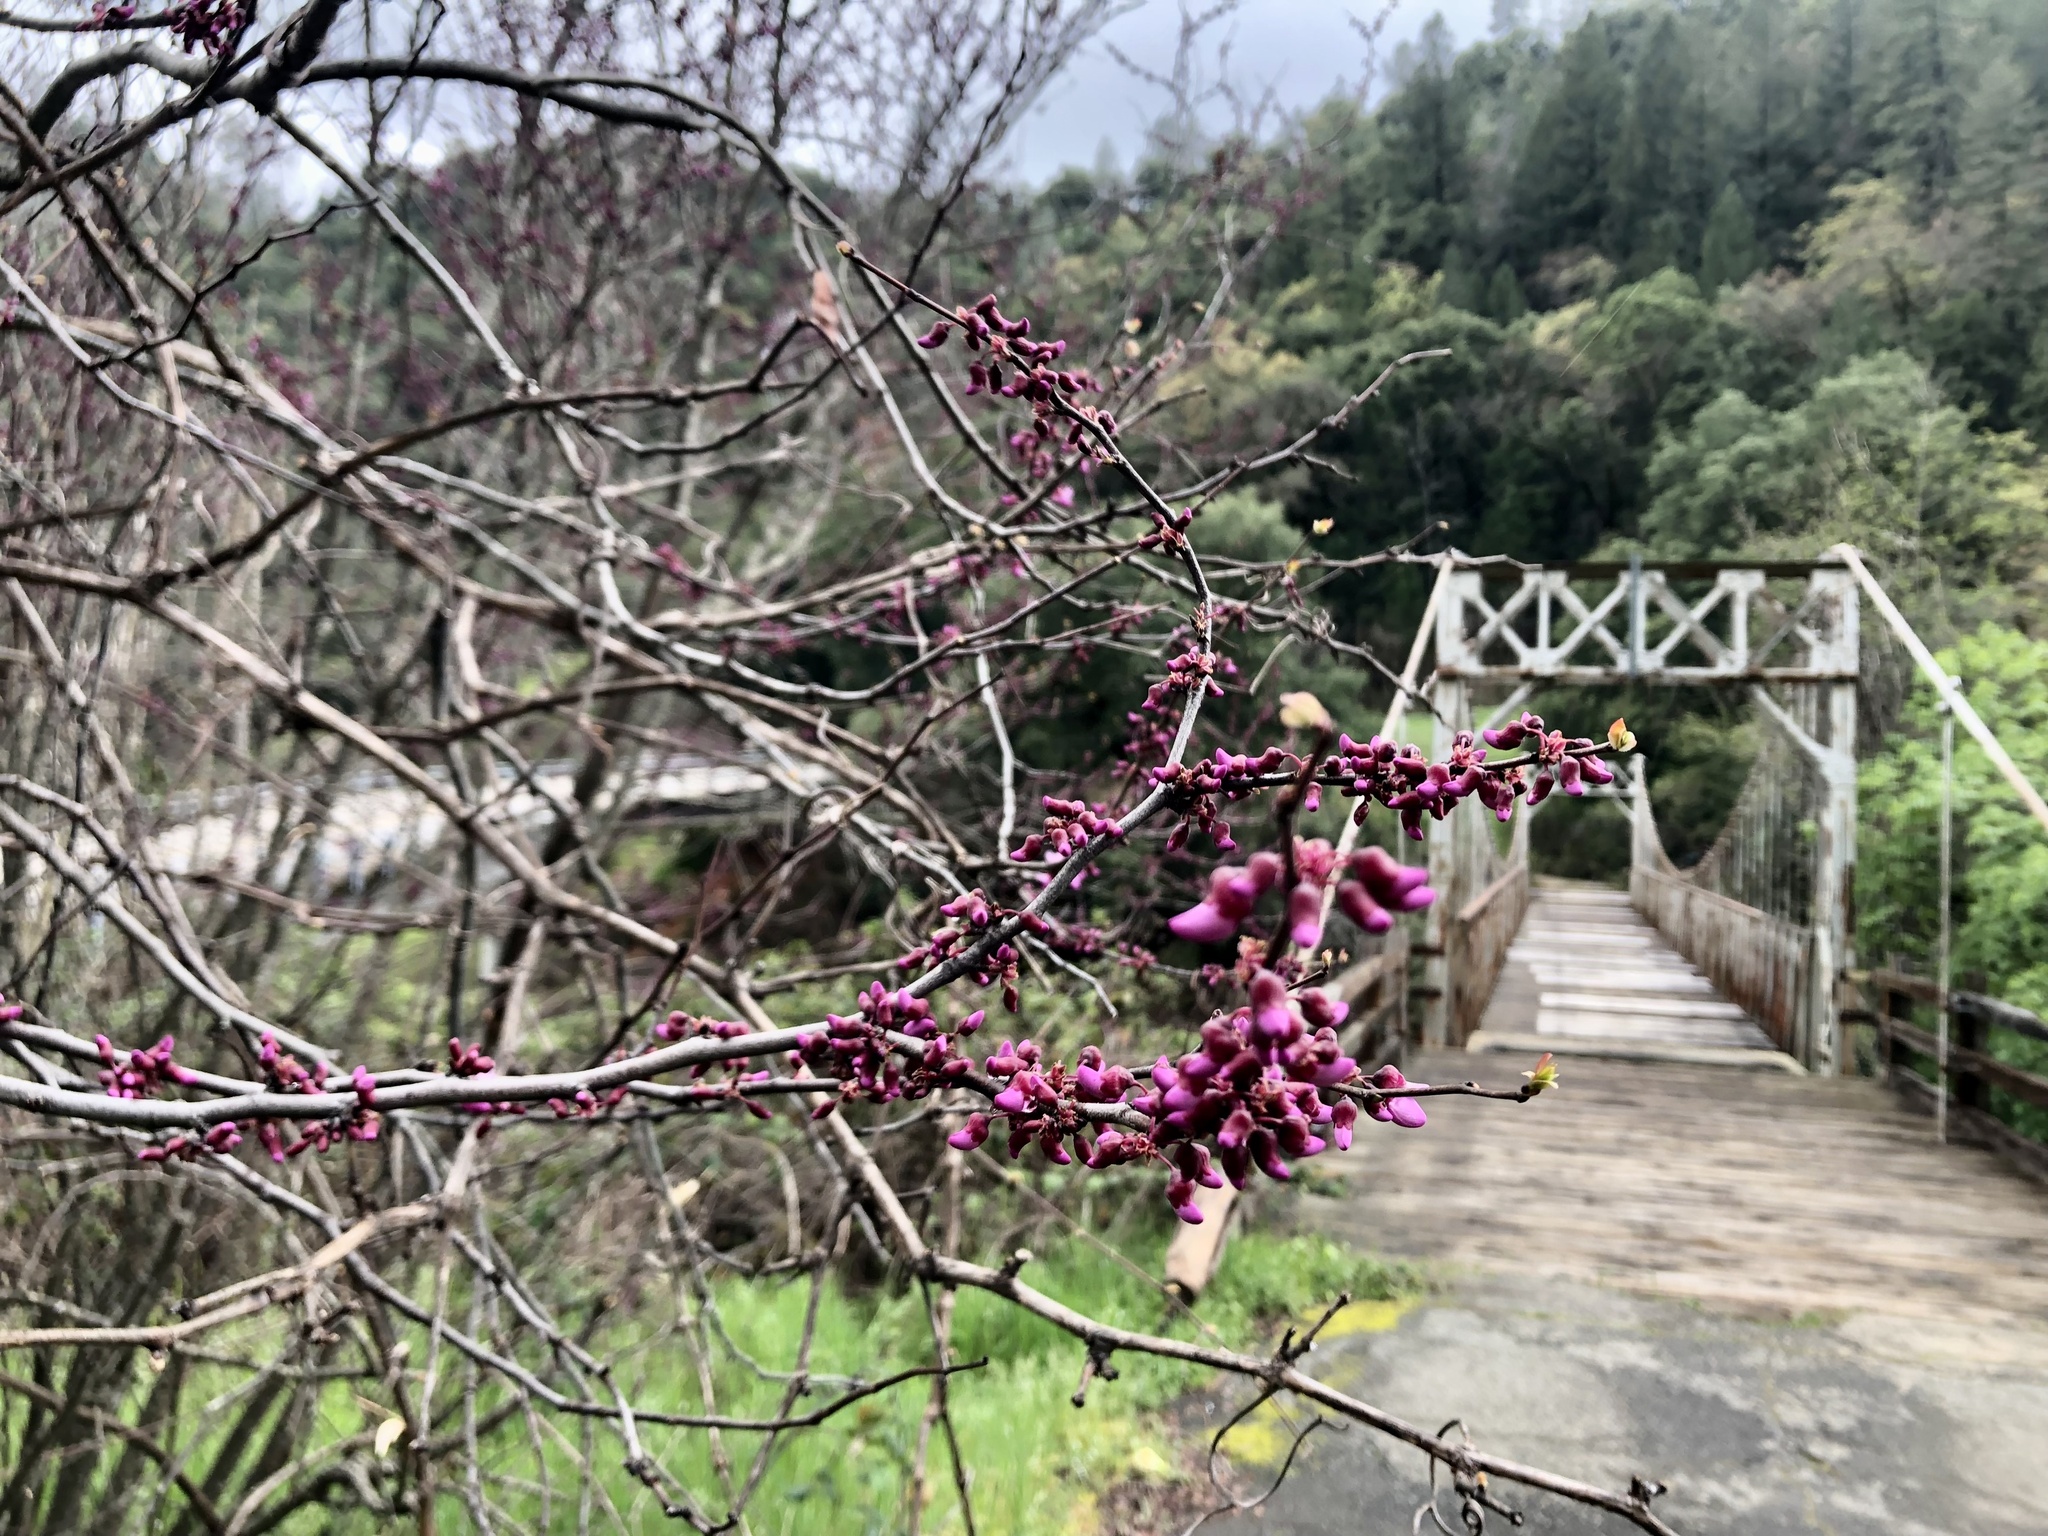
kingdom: Plantae
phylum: Tracheophyta
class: Magnoliopsida
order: Fabales
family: Fabaceae
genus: Cercis
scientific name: Cercis occidentalis
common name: California redbud
